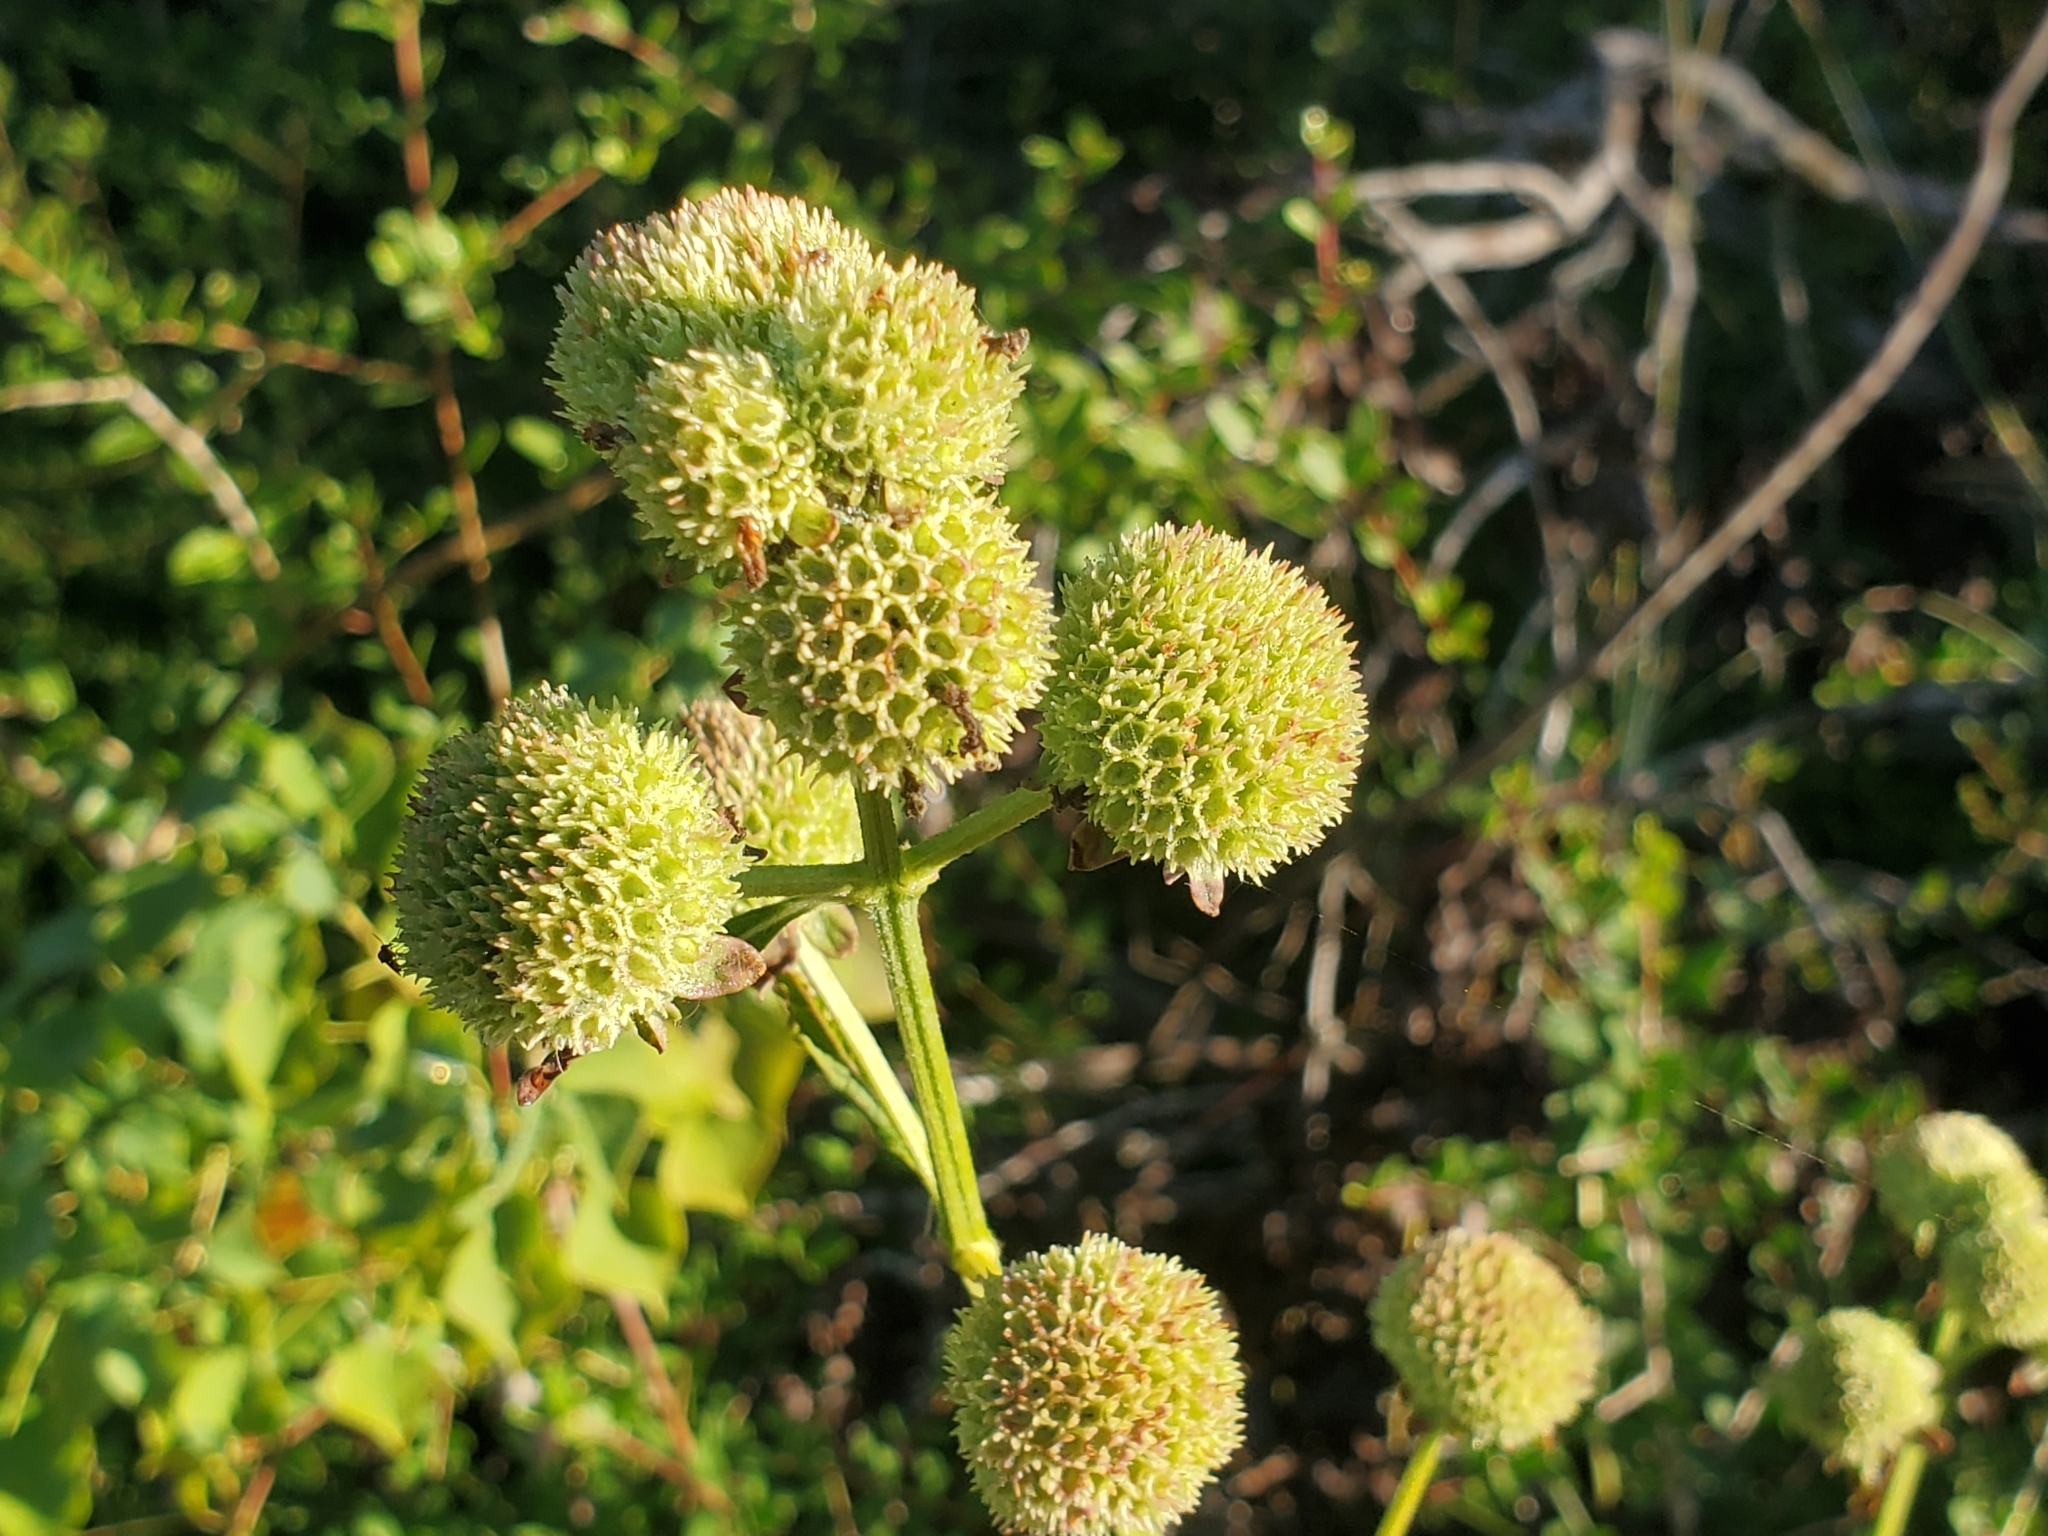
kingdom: Plantae
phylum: Tracheophyta
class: Magnoliopsida
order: Lamiales
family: Lamiaceae
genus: Hyptis
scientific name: Hyptis alata
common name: Cluster bush-mint
